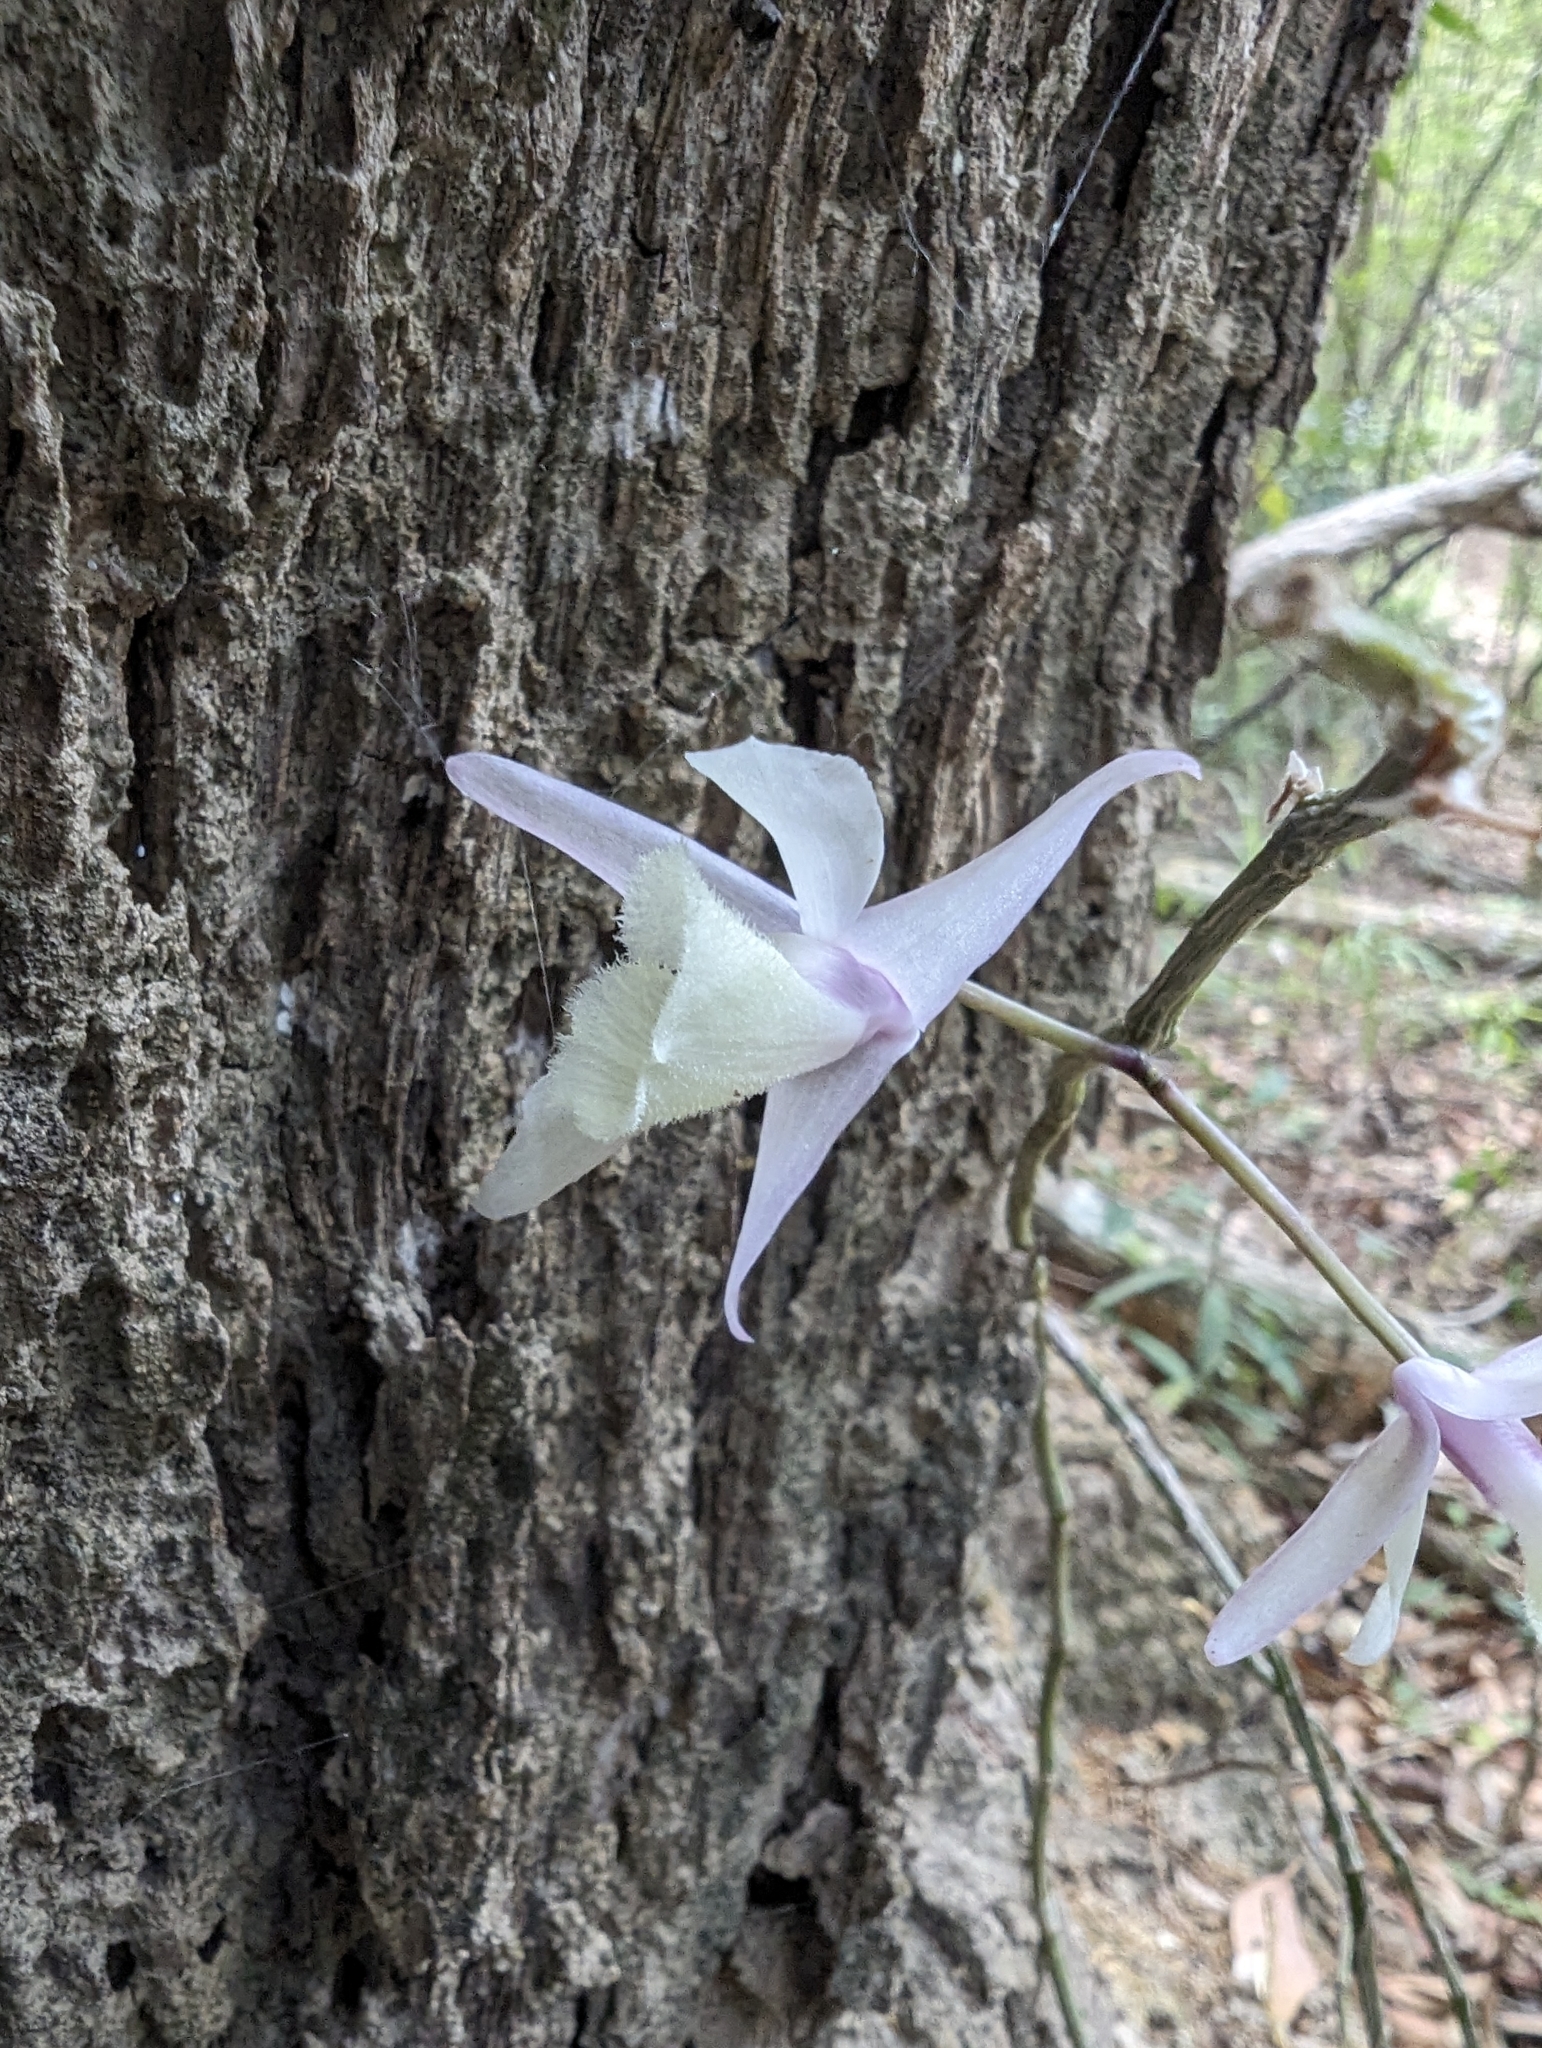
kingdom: Plantae
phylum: Tracheophyta
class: Liliopsida
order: Asparagales
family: Orchidaceae
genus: Dendrobium
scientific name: Dendrobium aphyllum
